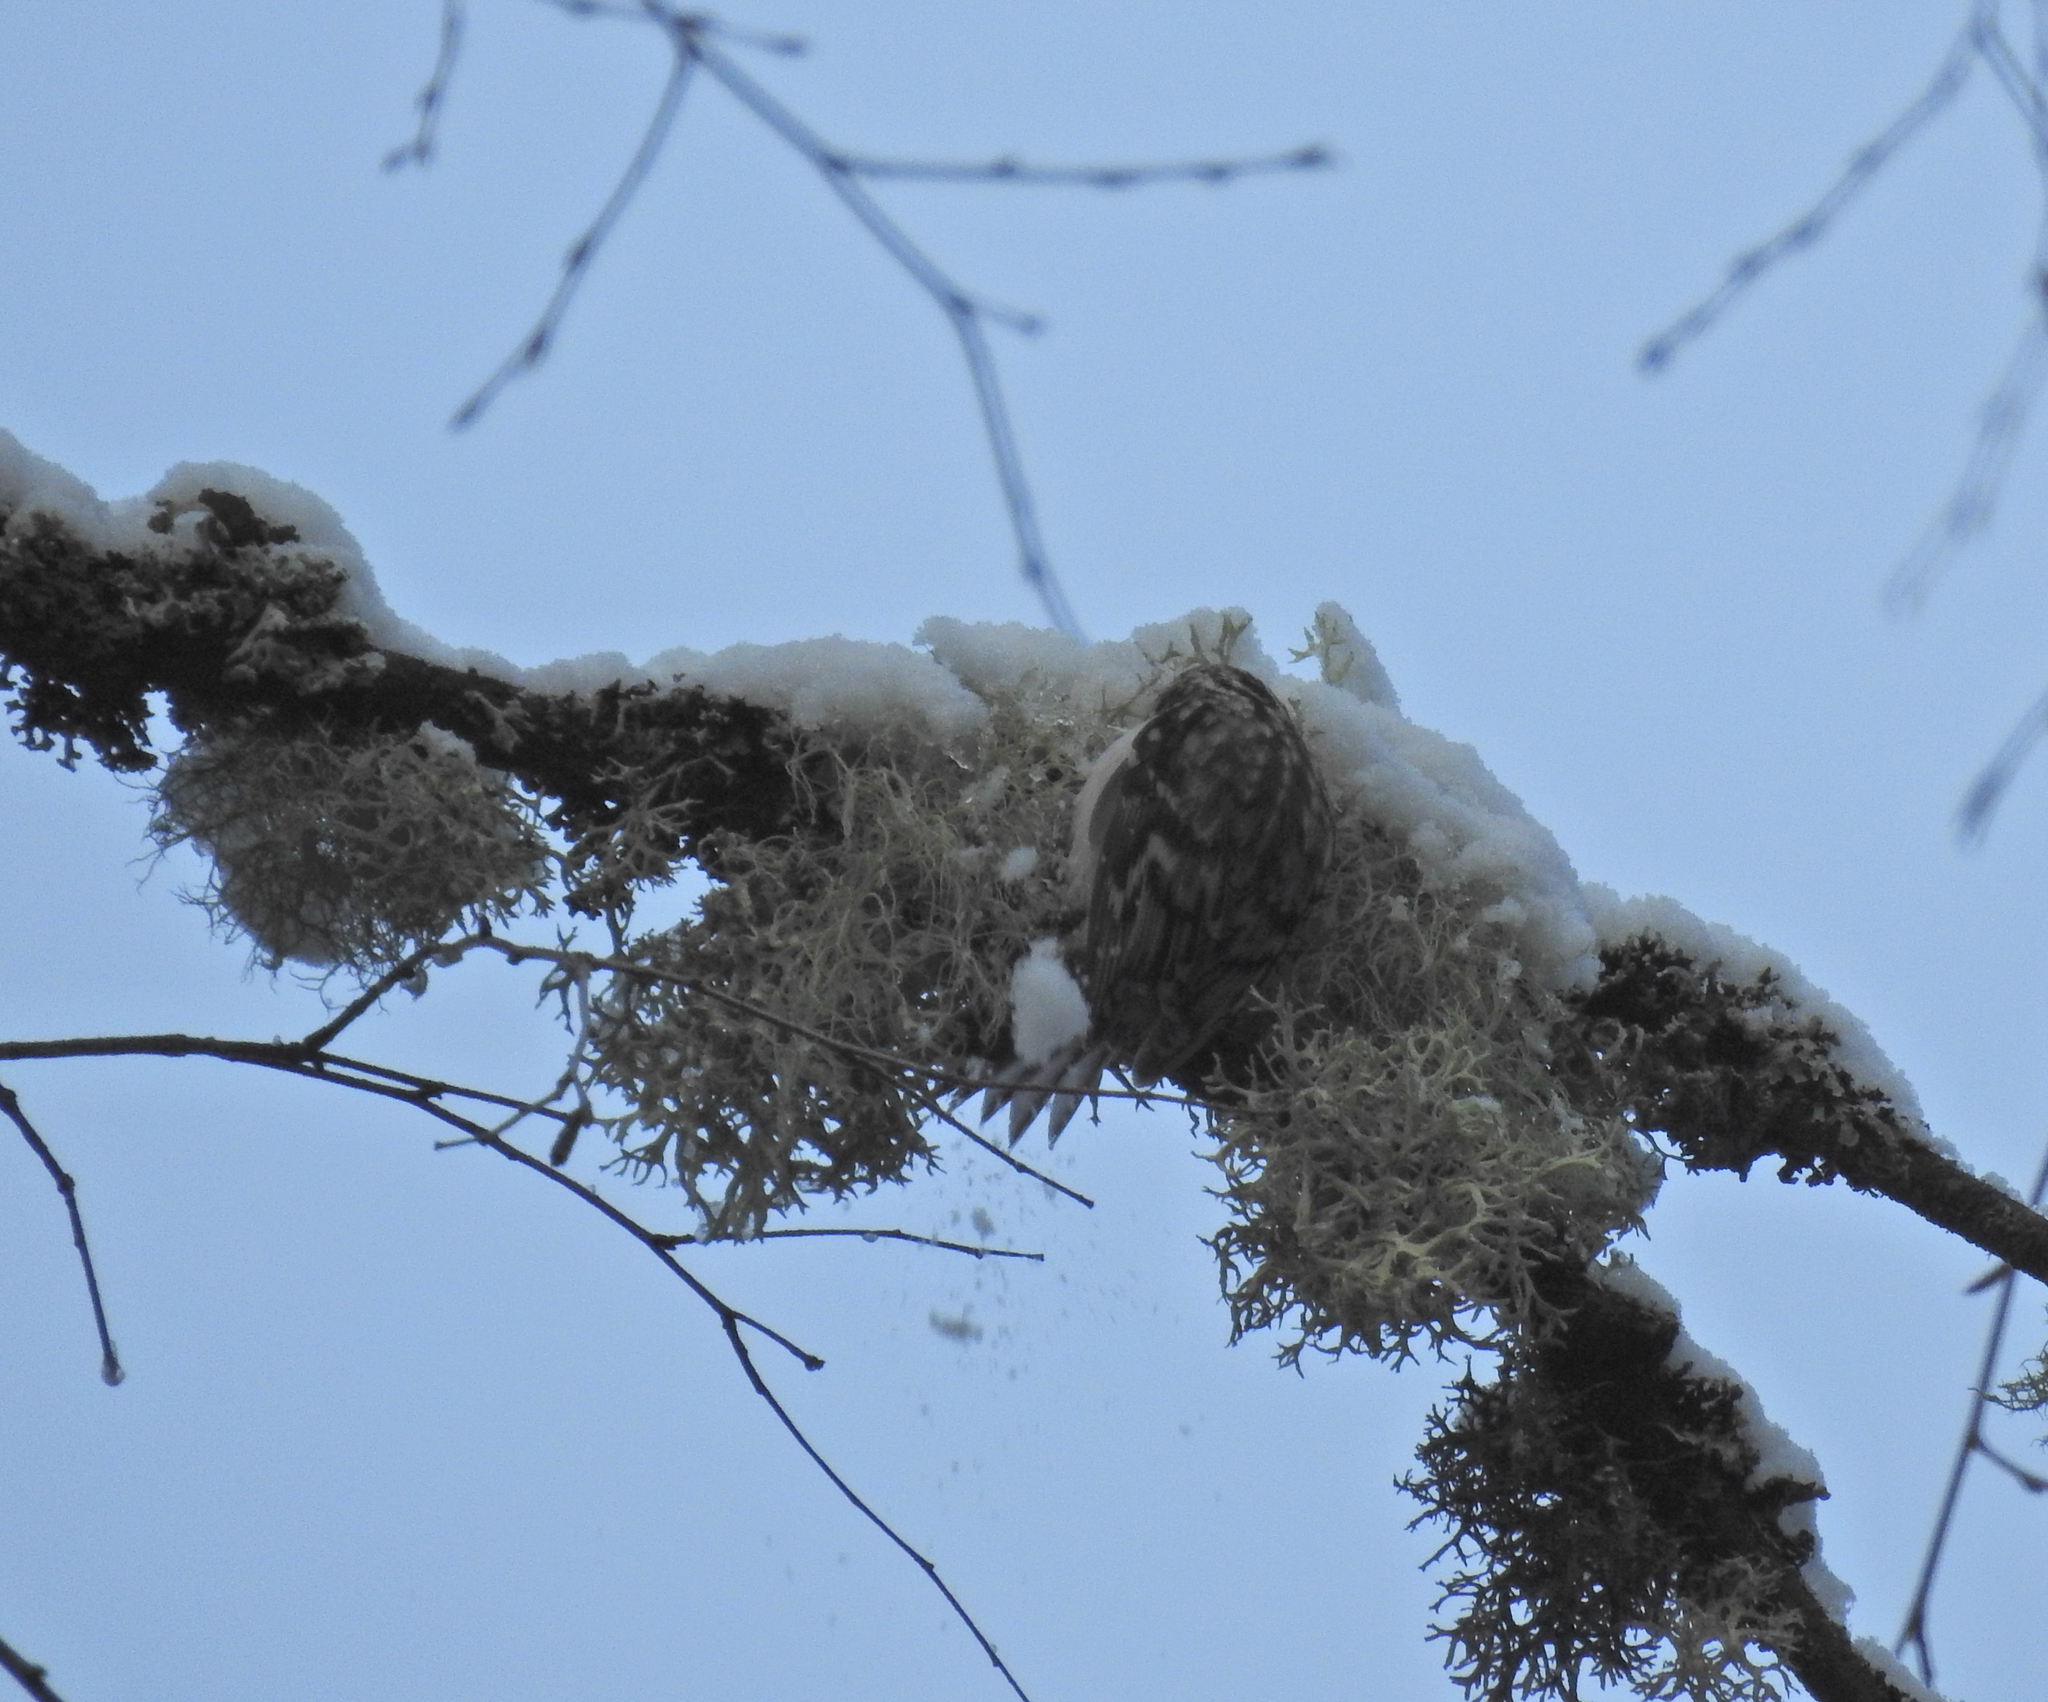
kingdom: Animalia
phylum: Chordata
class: Aves
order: Passeriformes
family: Certhiidae
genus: Certhia
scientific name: Certhia familiaris
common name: Eurasian treecreeper
